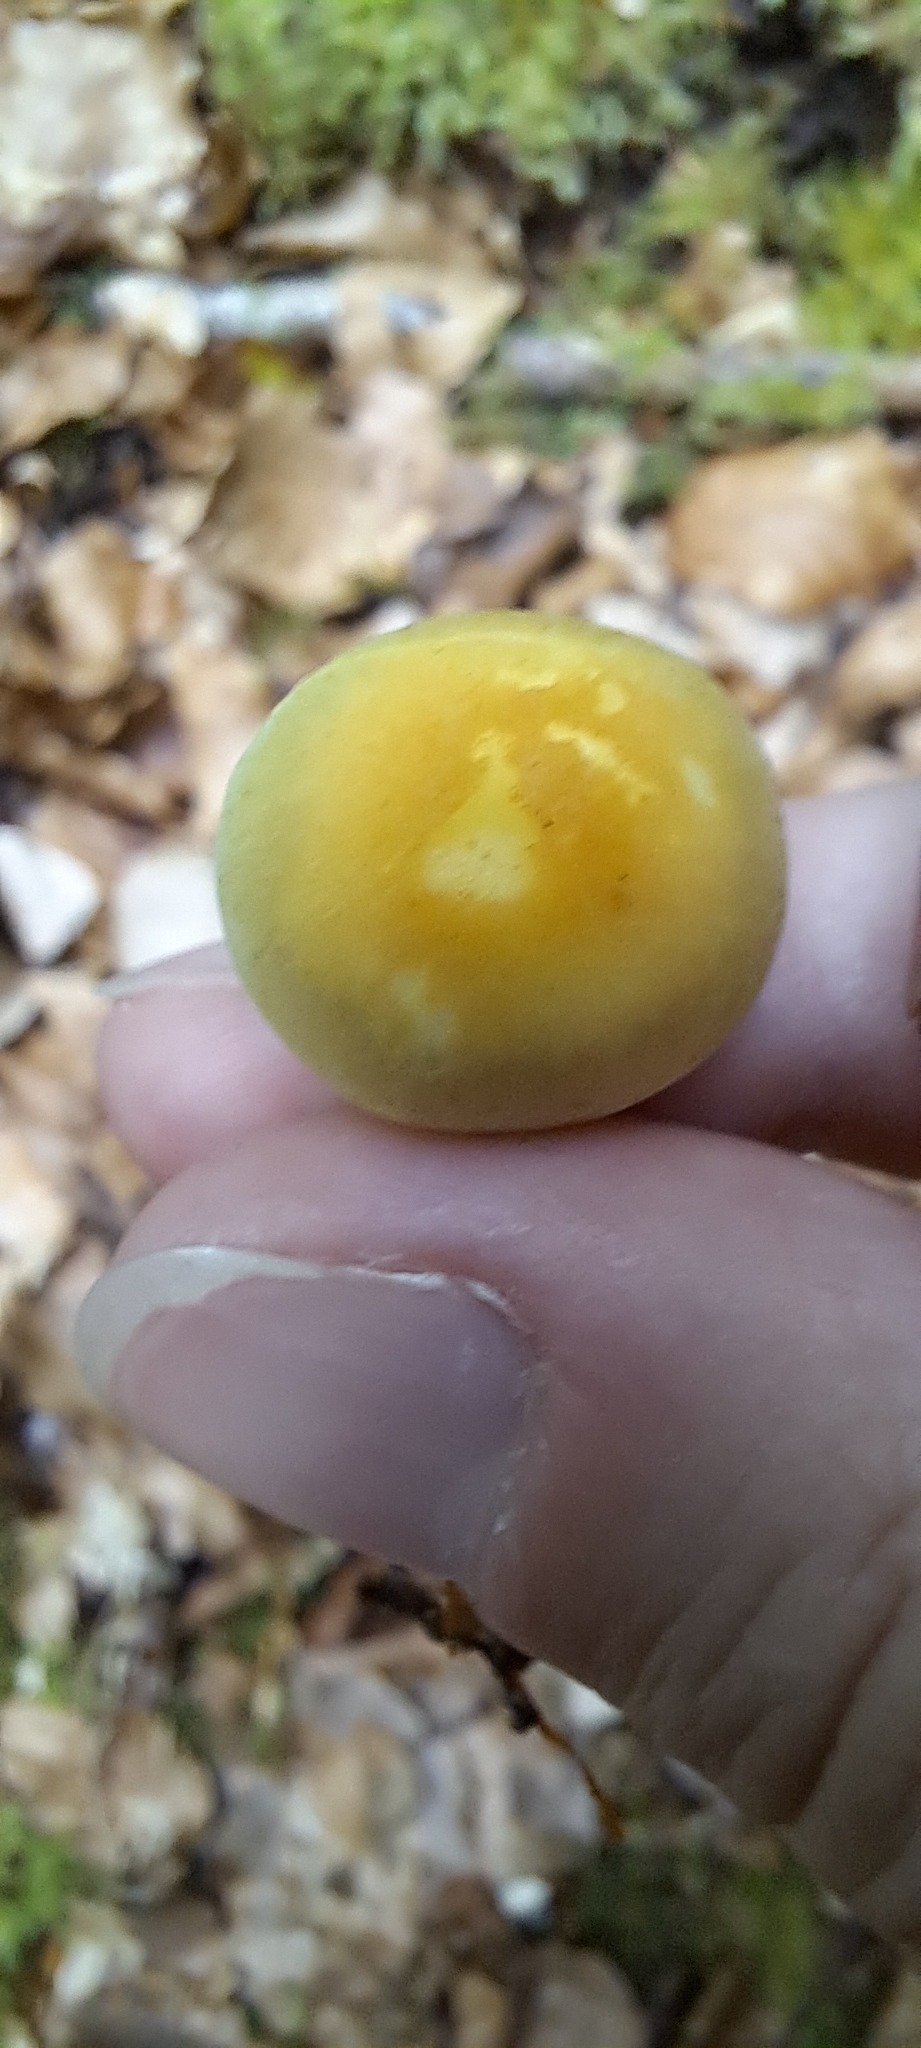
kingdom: Fungi
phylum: Basidiomycota
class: Agaricomycetes
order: Agaricales
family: Strophariaceae
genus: Hypholoma
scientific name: Hypholoma fasciculare
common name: Sulphur tuft
